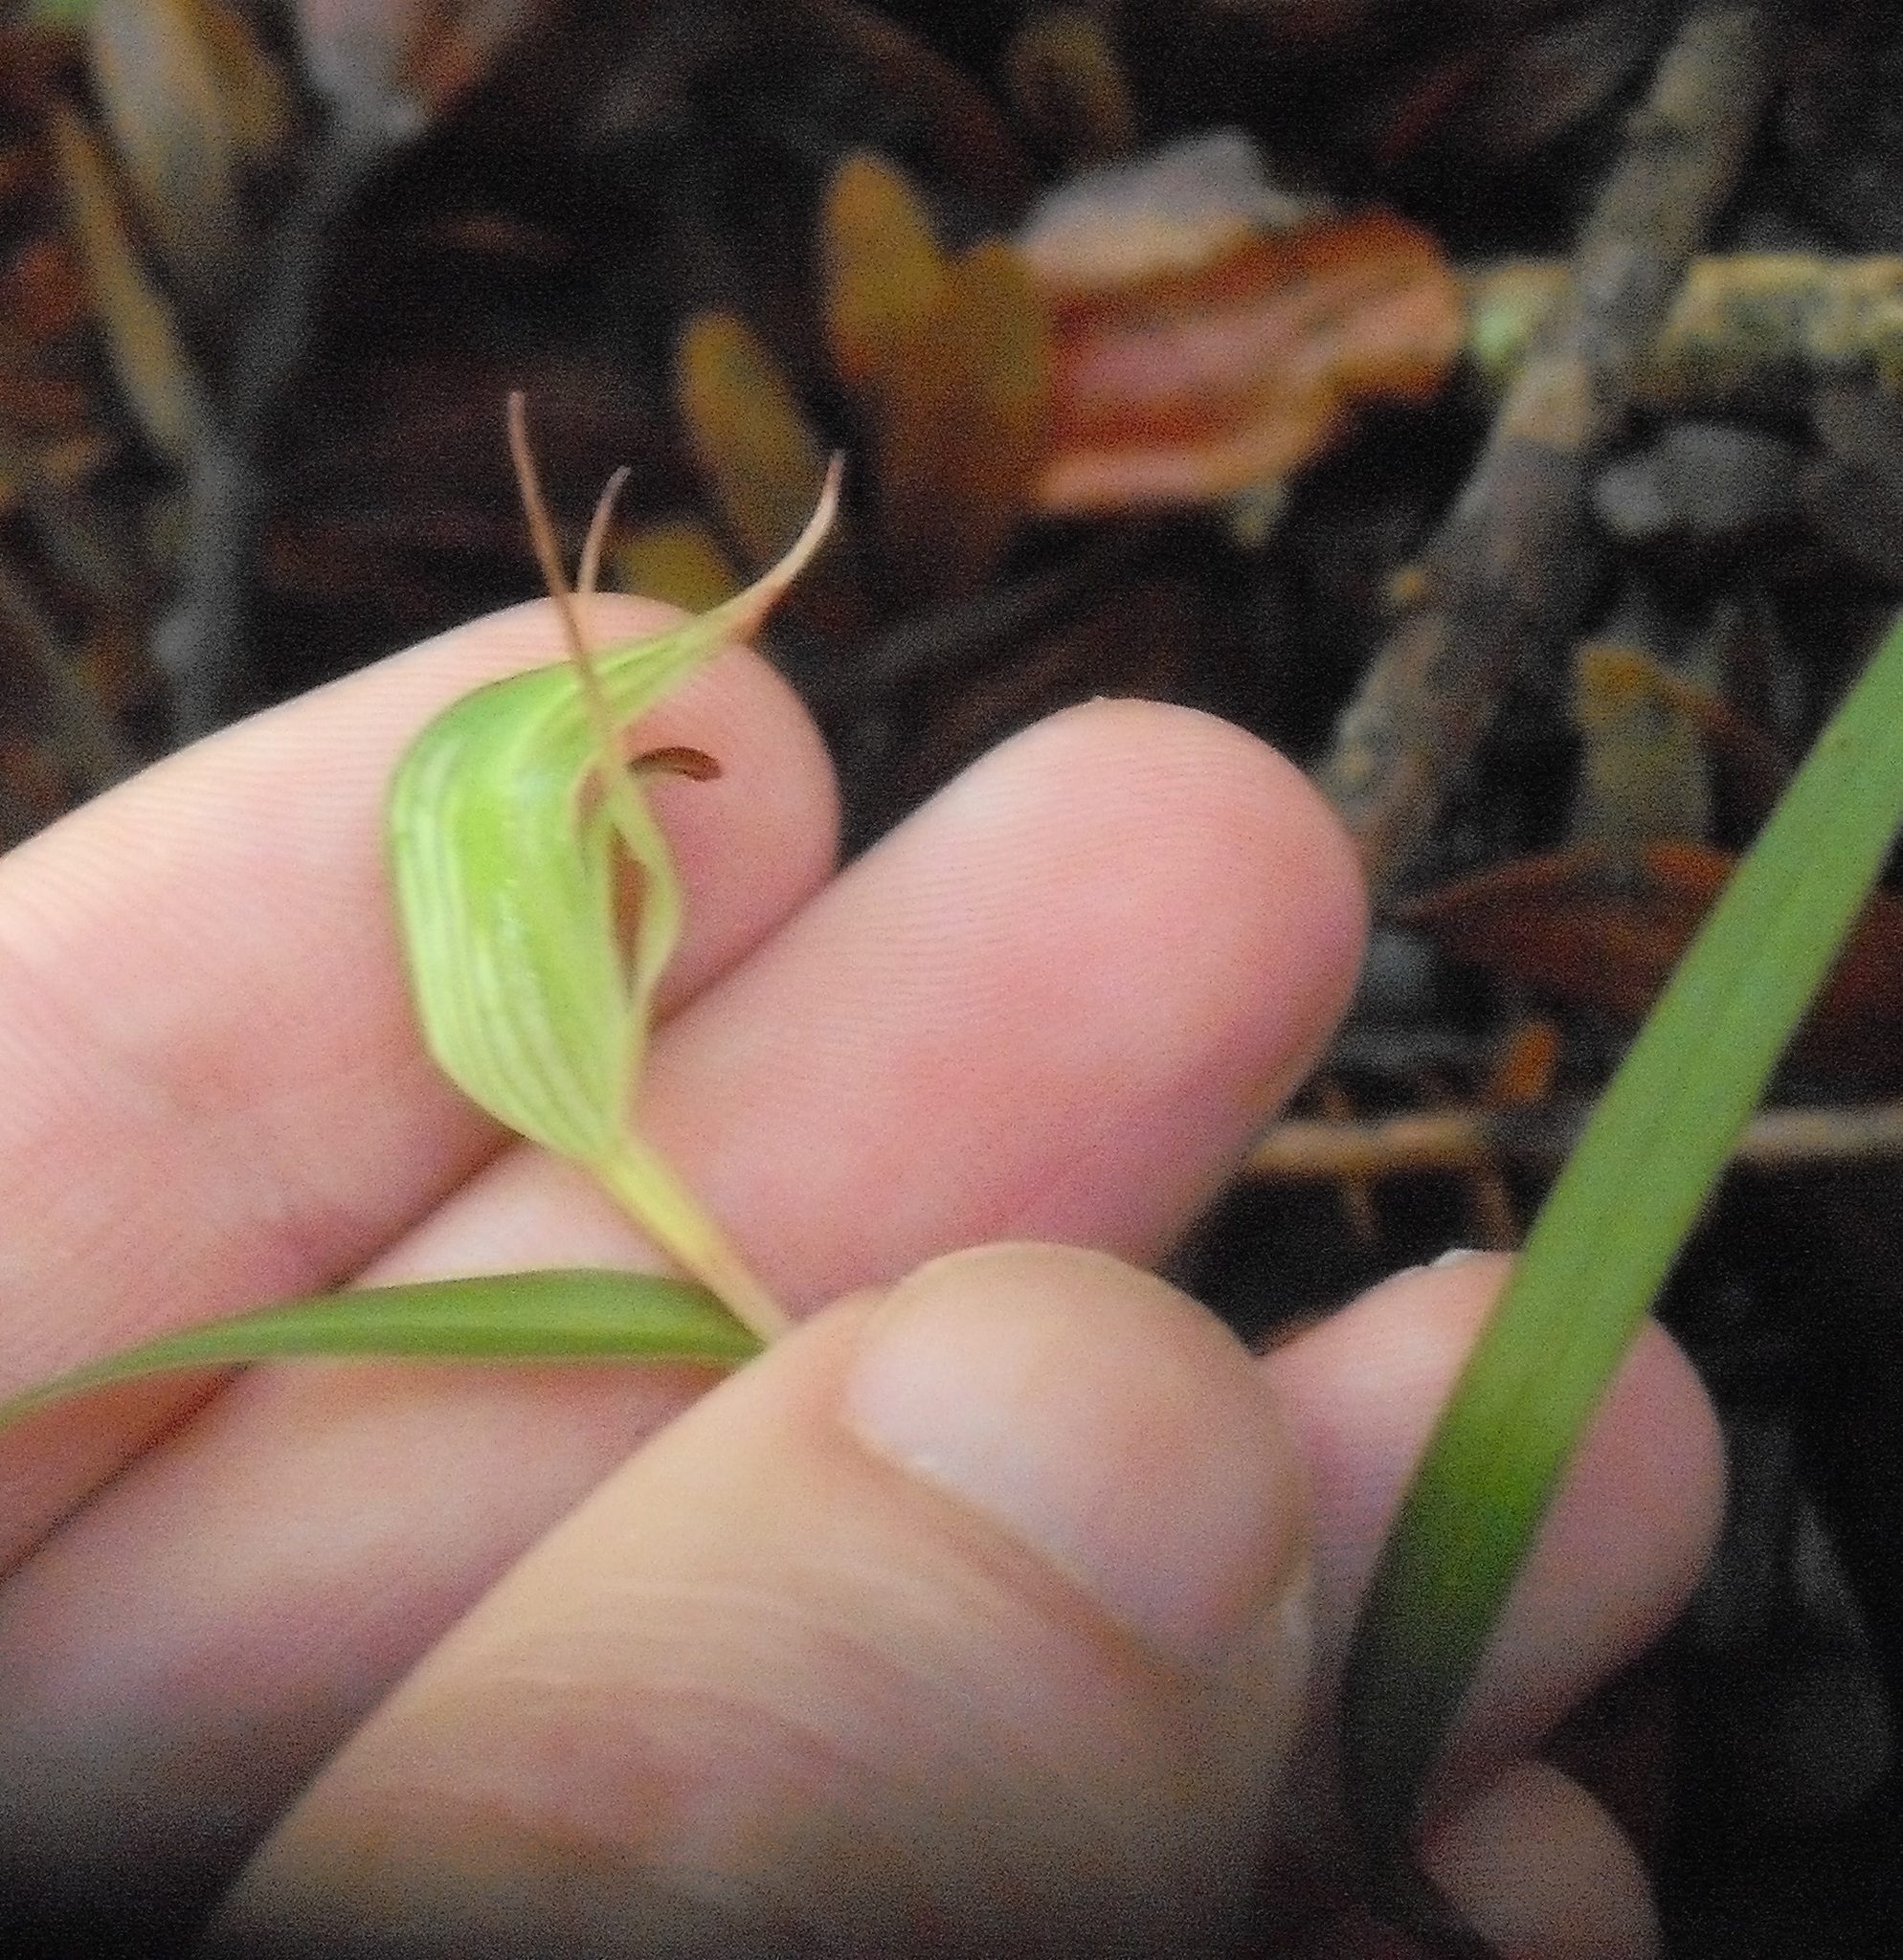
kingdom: Plantae
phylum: Tracheophyta
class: Liliopsida
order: Asparagales
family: Orchidaceae
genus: Pterostylis
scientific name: Pterostylis agathicola
